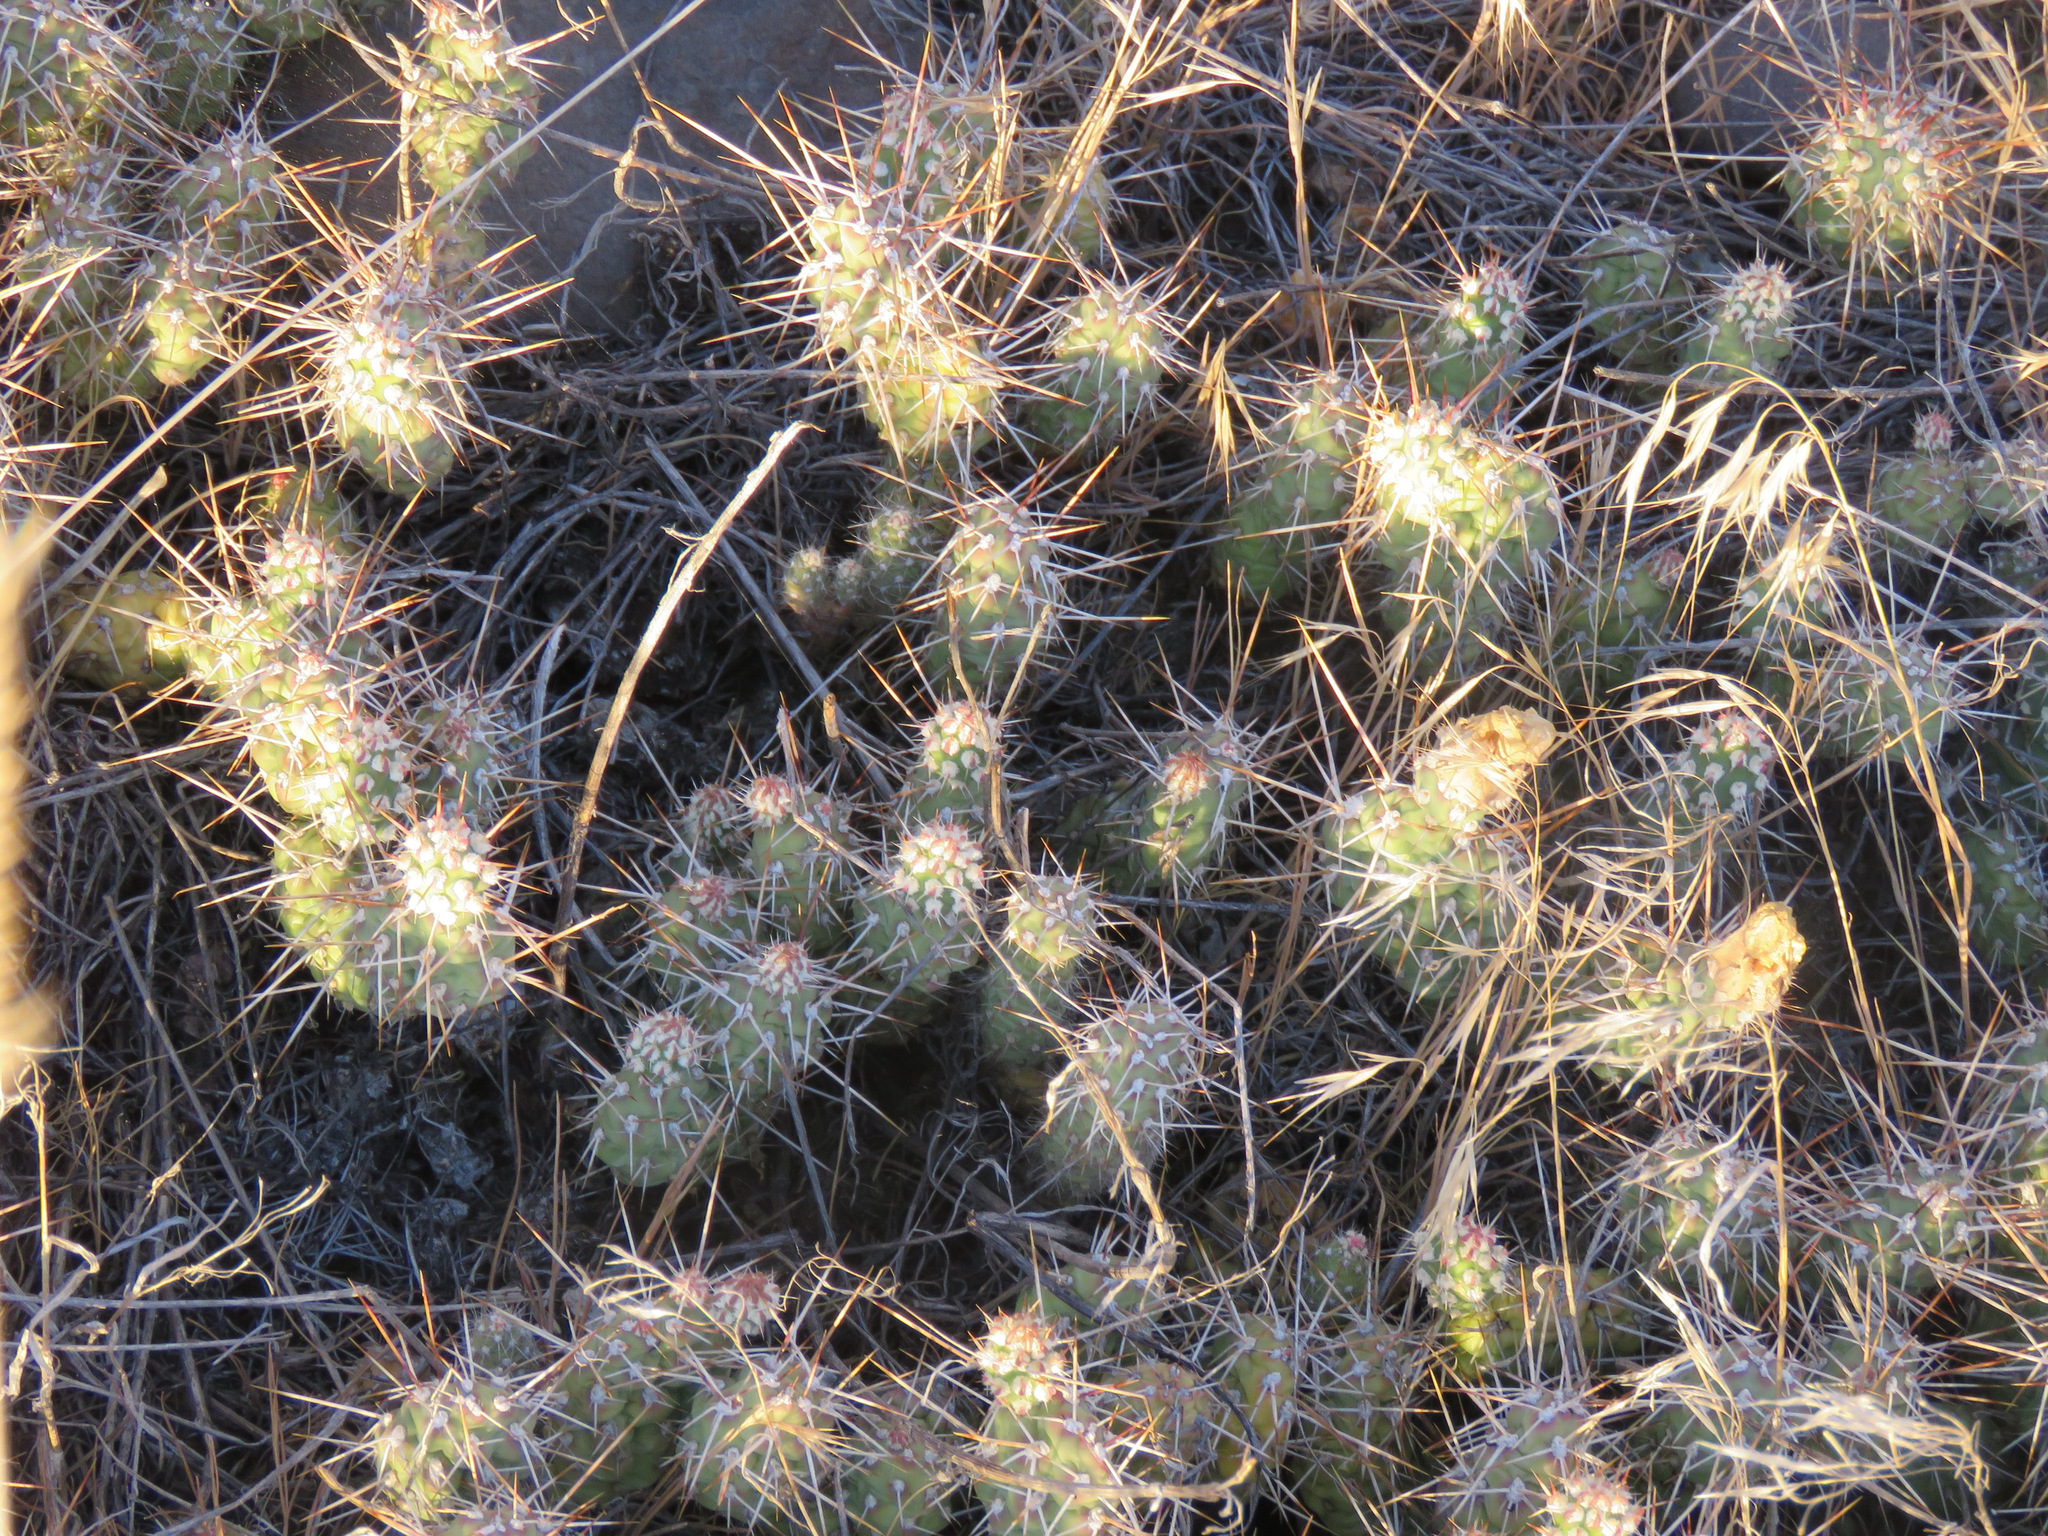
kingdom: Plantae
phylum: Tracheophyta
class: Magnoliopsida
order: Caryophyllales
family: Cactaceae
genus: Opuntia
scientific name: Opuntia fragilis
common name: Brittle cactus
